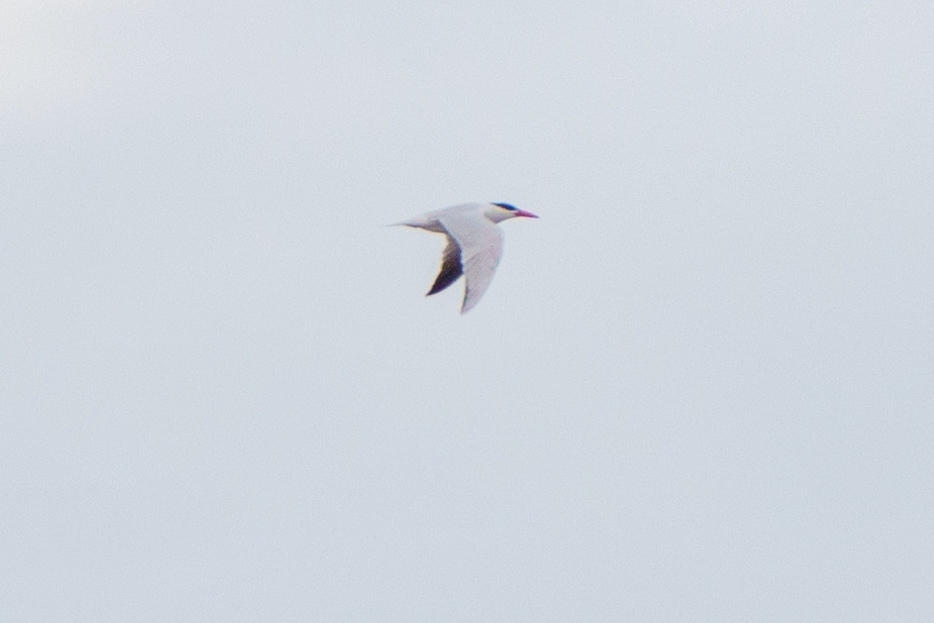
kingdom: Animalia
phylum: Chordata
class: Aves
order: Charadriiformes
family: Laridae
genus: Hydroprogne
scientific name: Hydroprogne caspia
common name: Caspian tern
